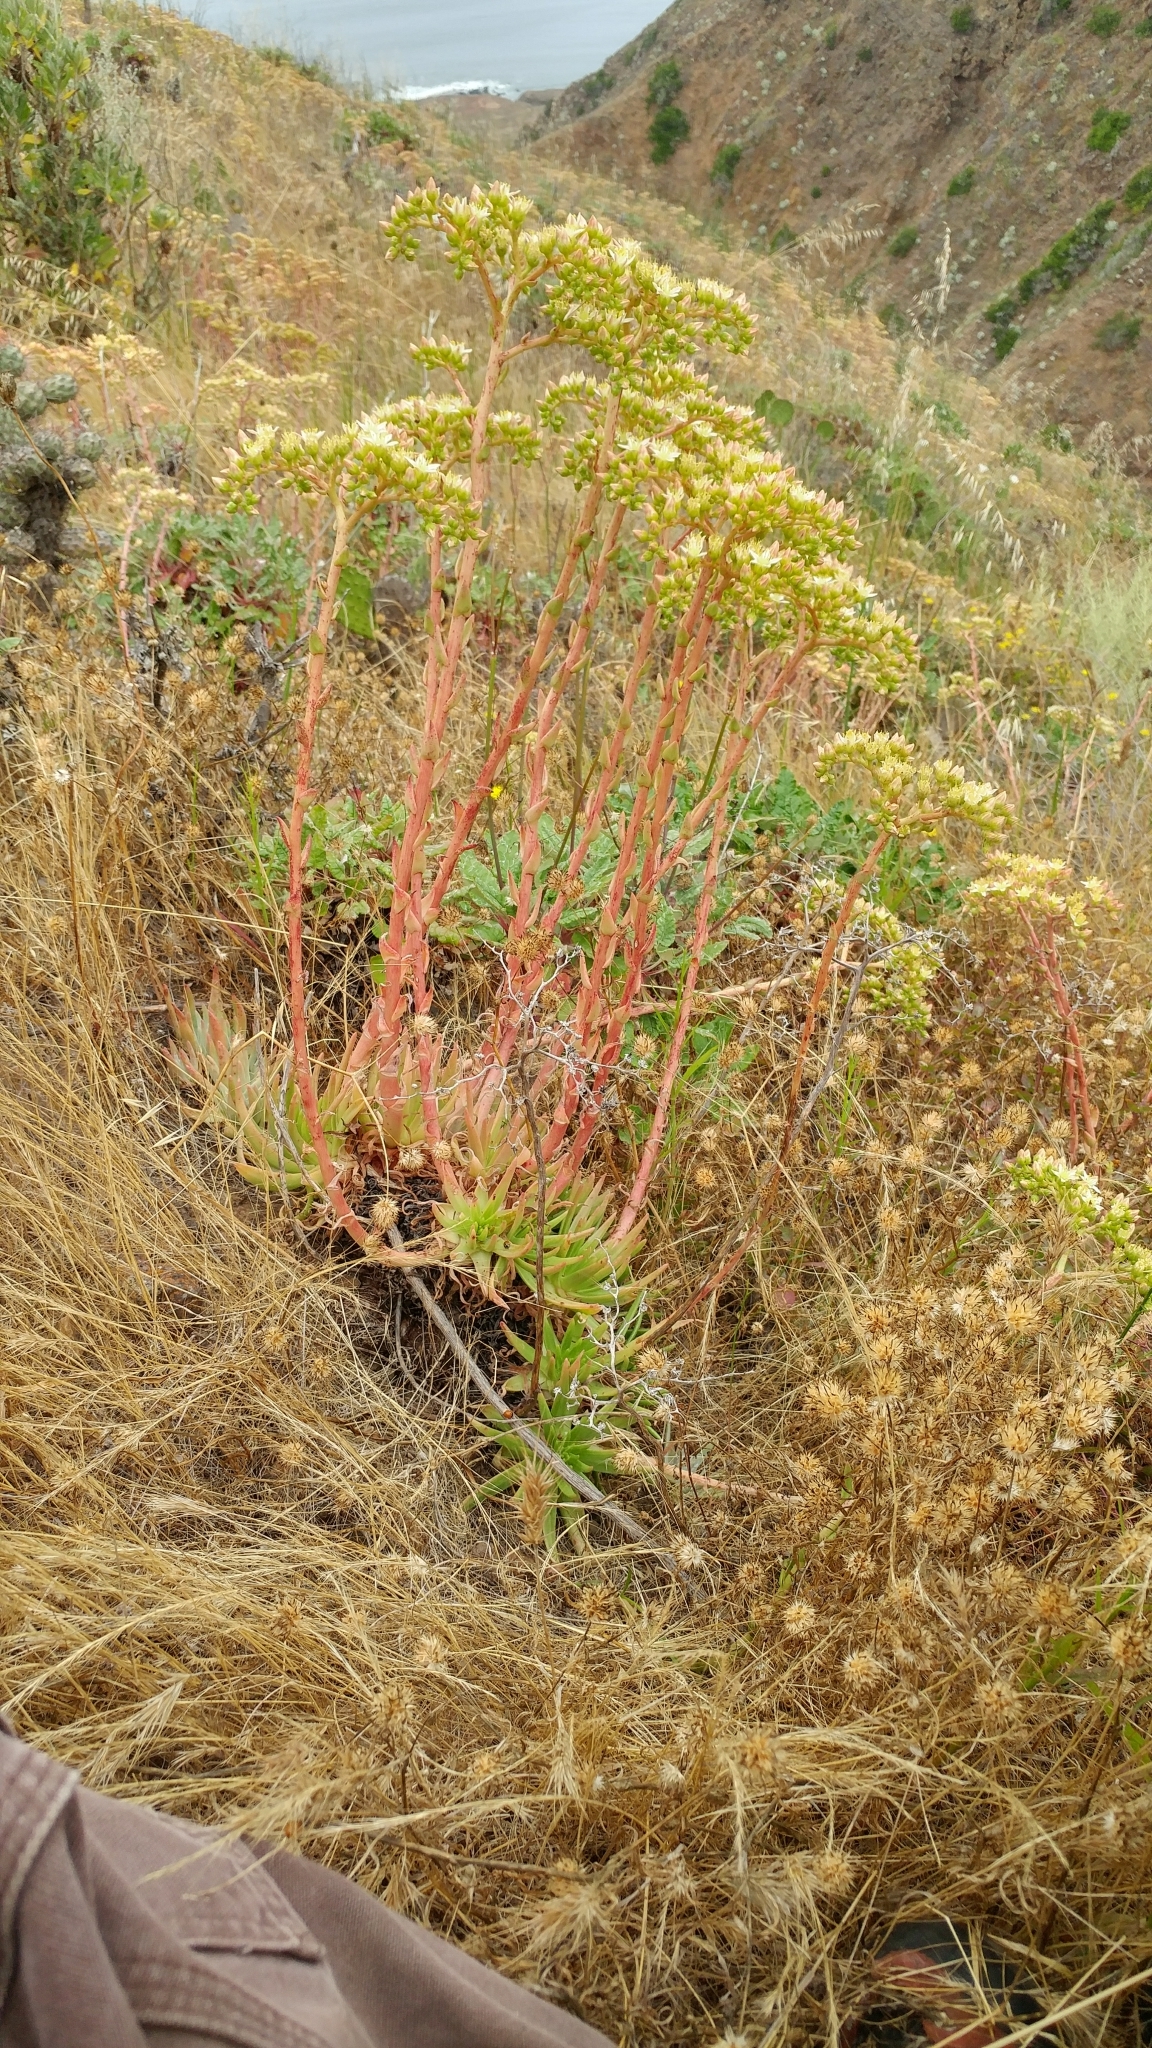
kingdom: Plantae
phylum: Tracheophyta
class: Magnoliopsida
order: Saxifragales
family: Crassulaceae
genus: Dudleya
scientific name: Dudleya virens
